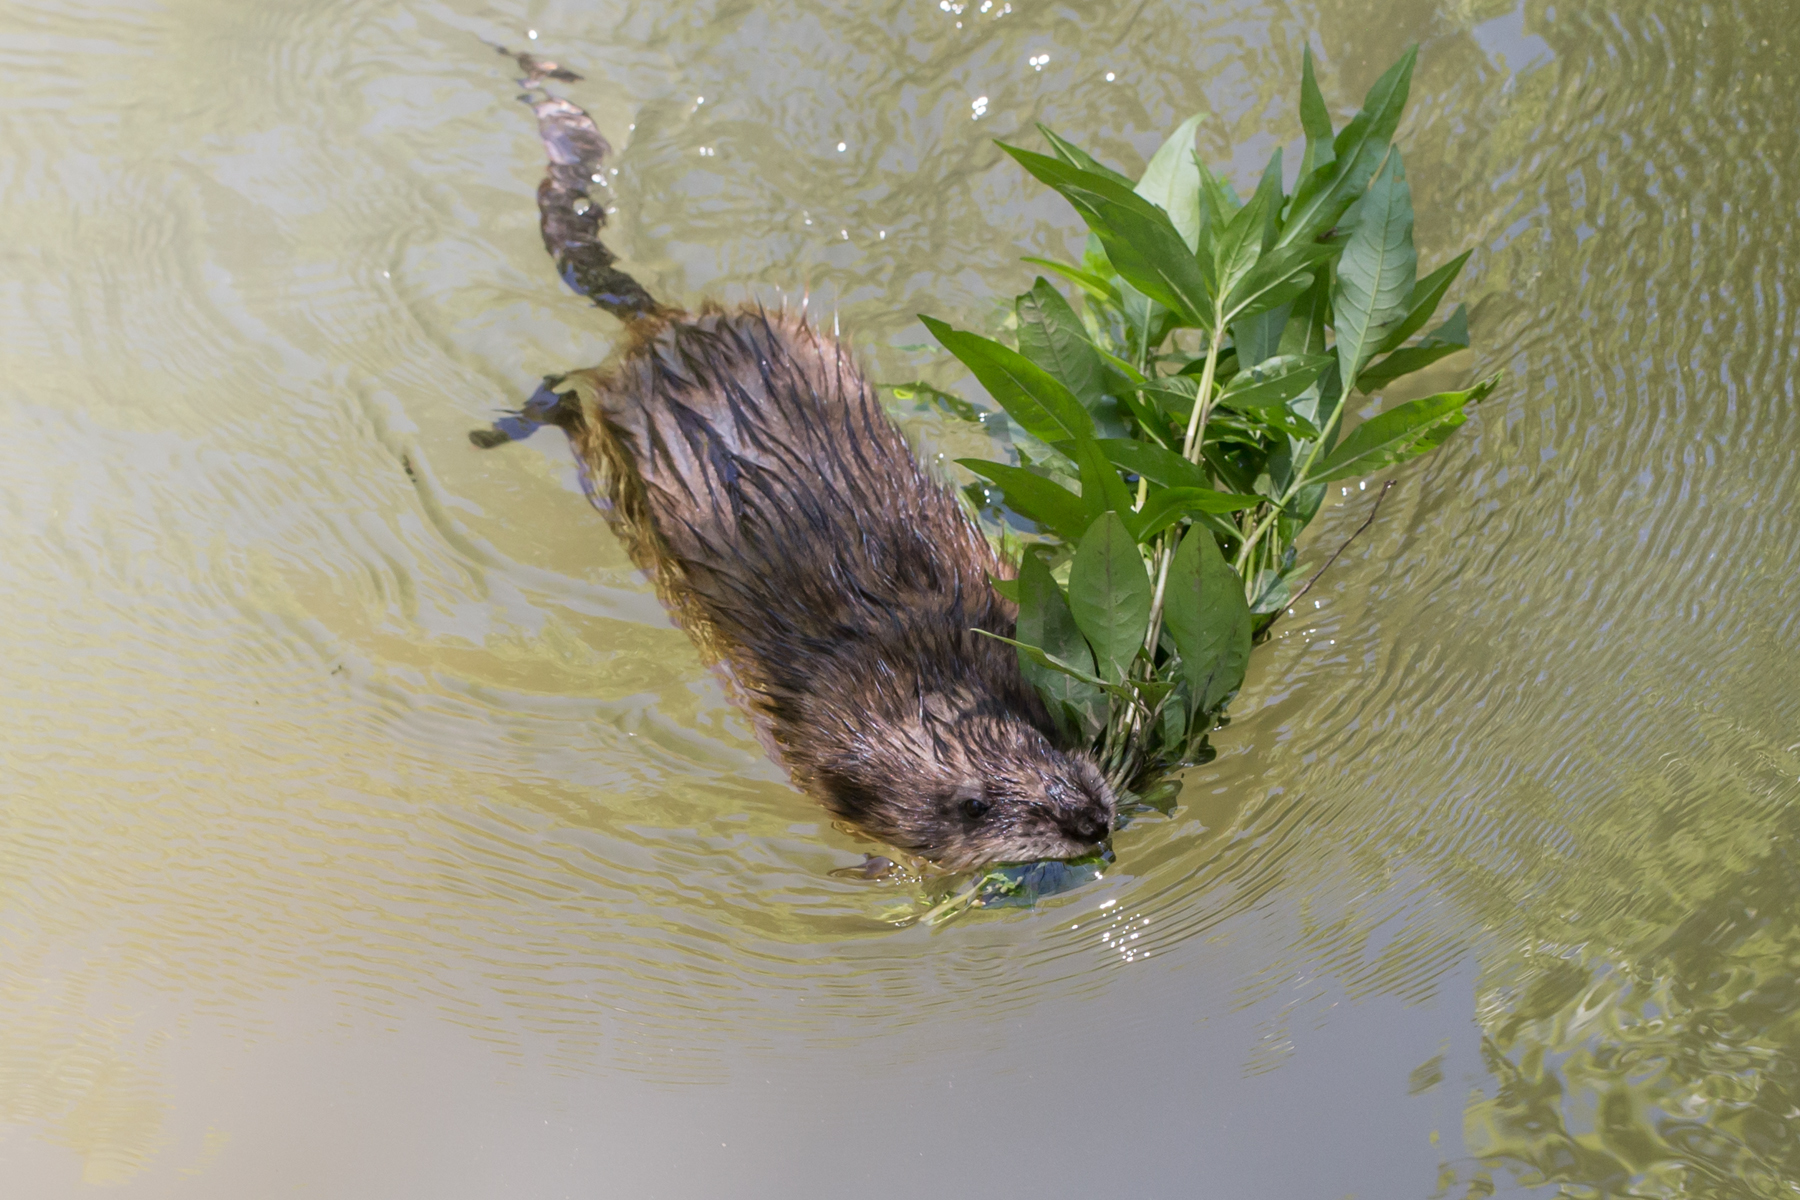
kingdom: Animalia
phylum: Chordata
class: Mammalia
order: Rodentia
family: Cricetidae
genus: Ondatra
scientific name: Ondatra zibethicus
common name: Muskrat
